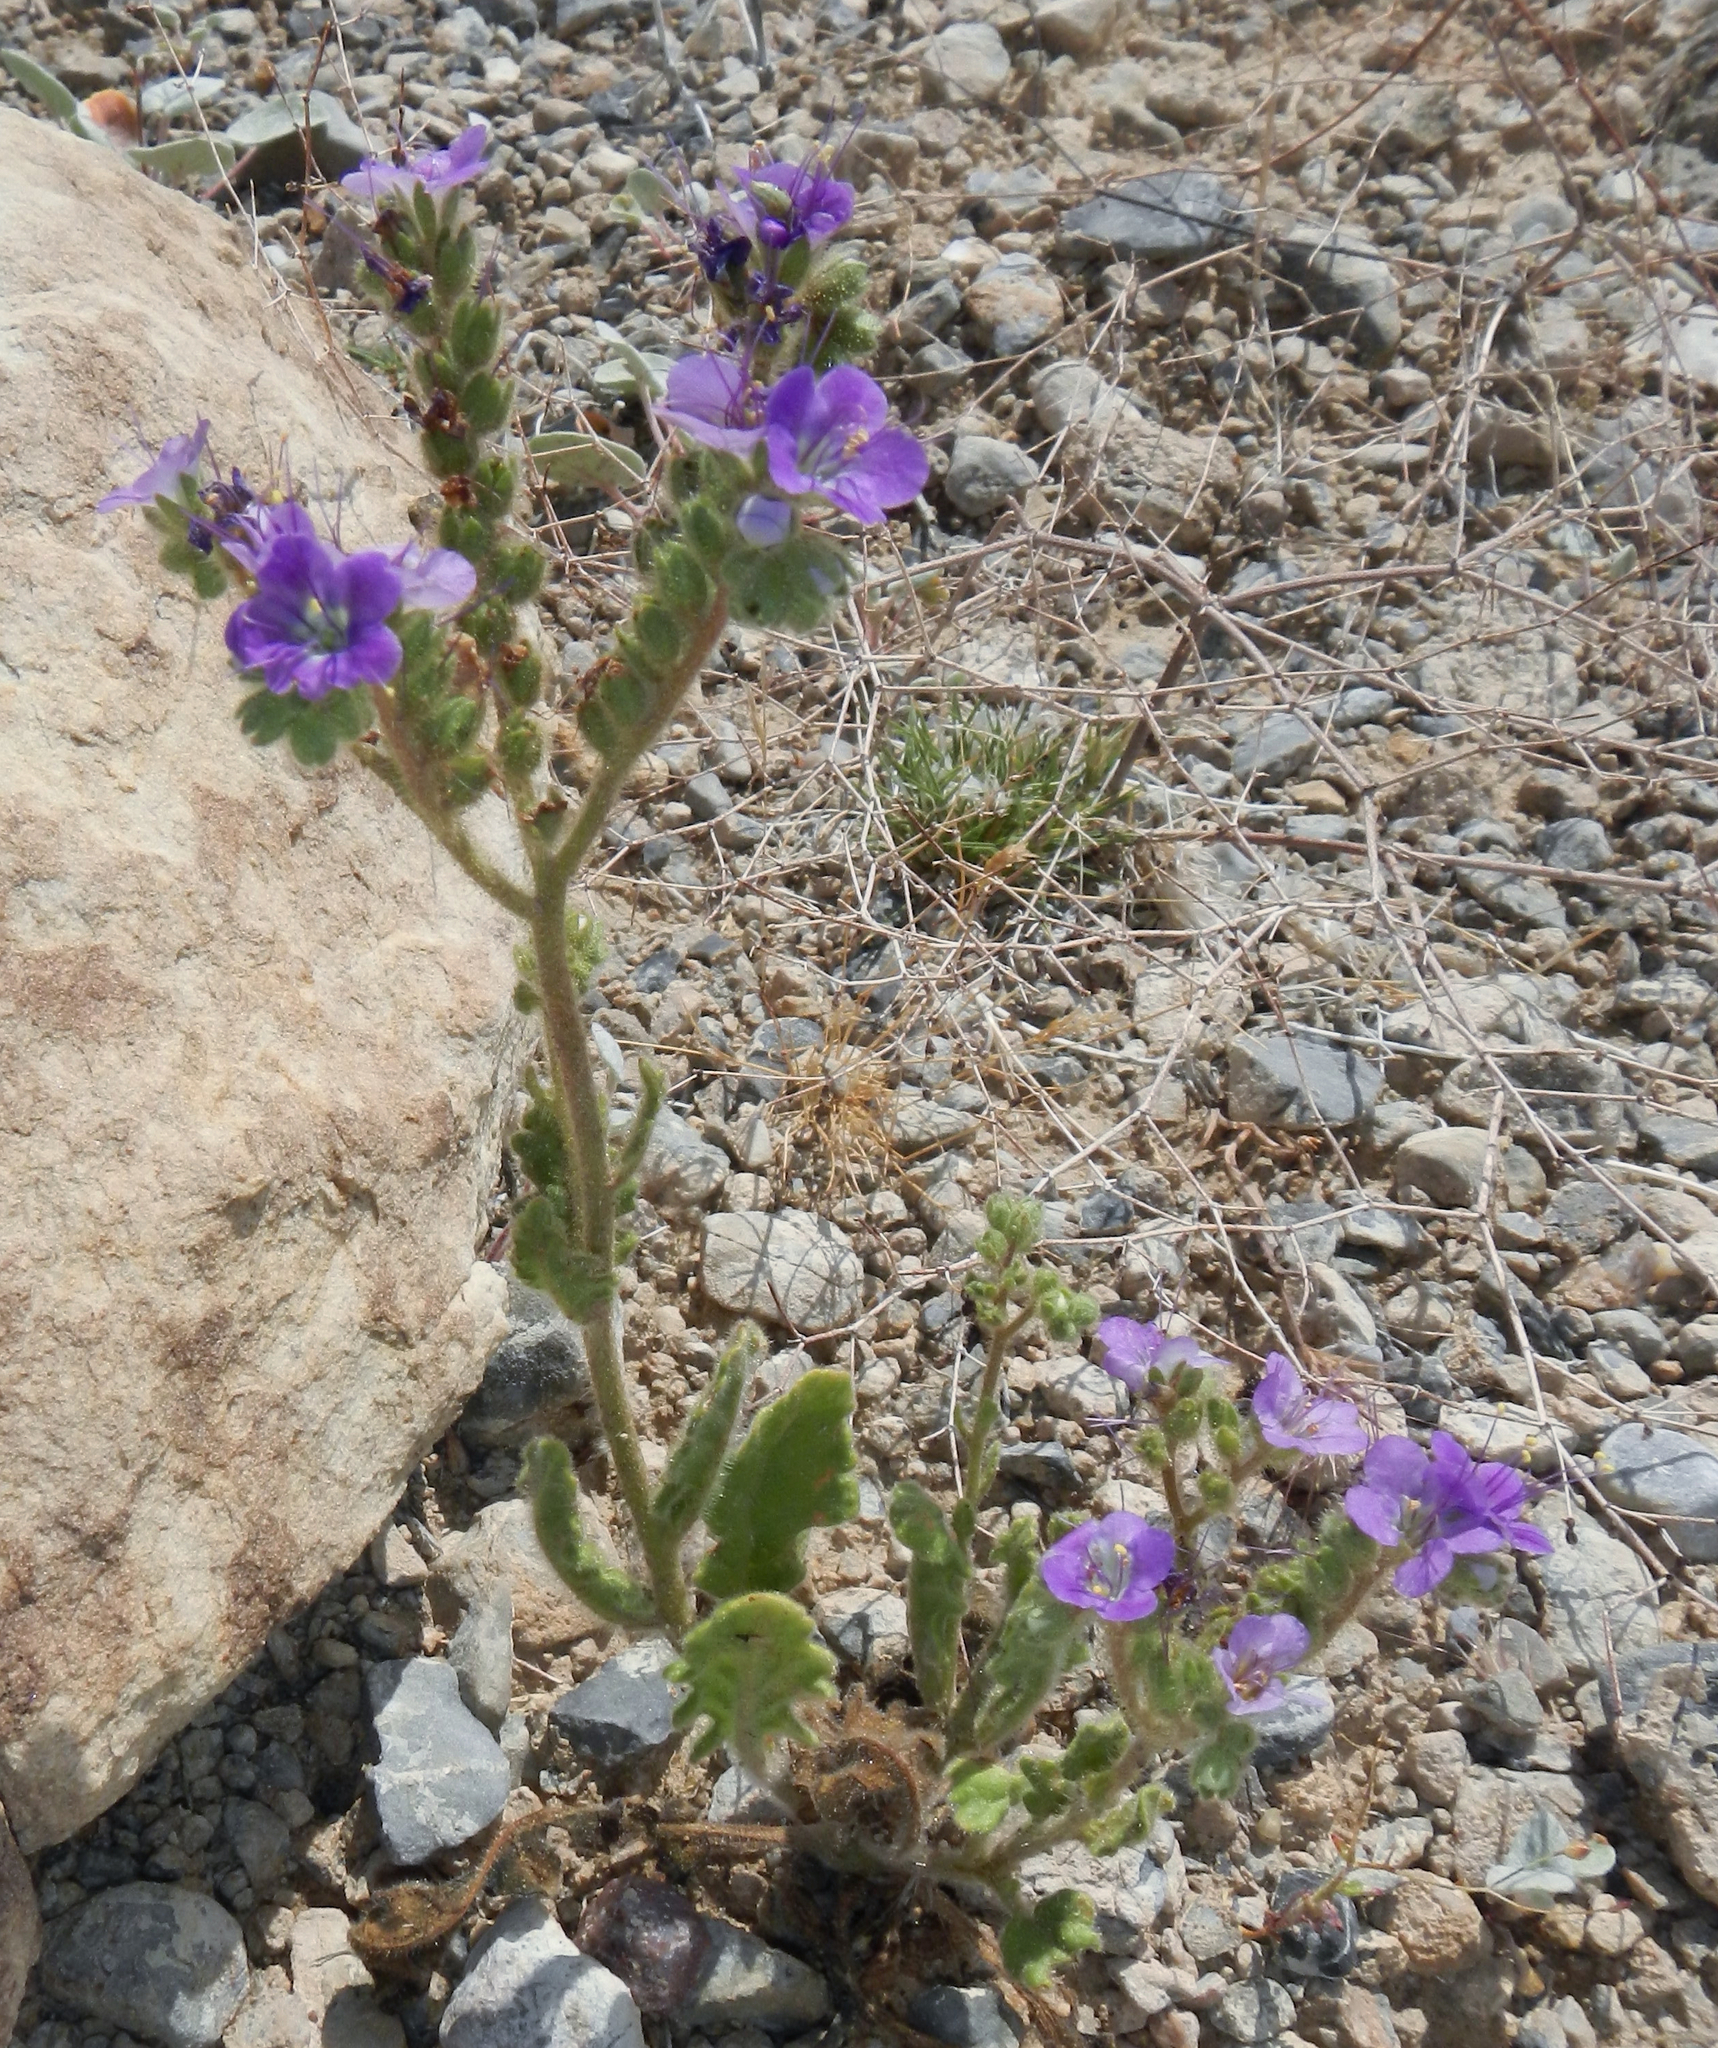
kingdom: Plantae
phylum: Tracheophyta
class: Magnoliopsida
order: Boraginales
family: Hydrophyllaceae
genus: Phacelia
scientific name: Phacelia crenulata
